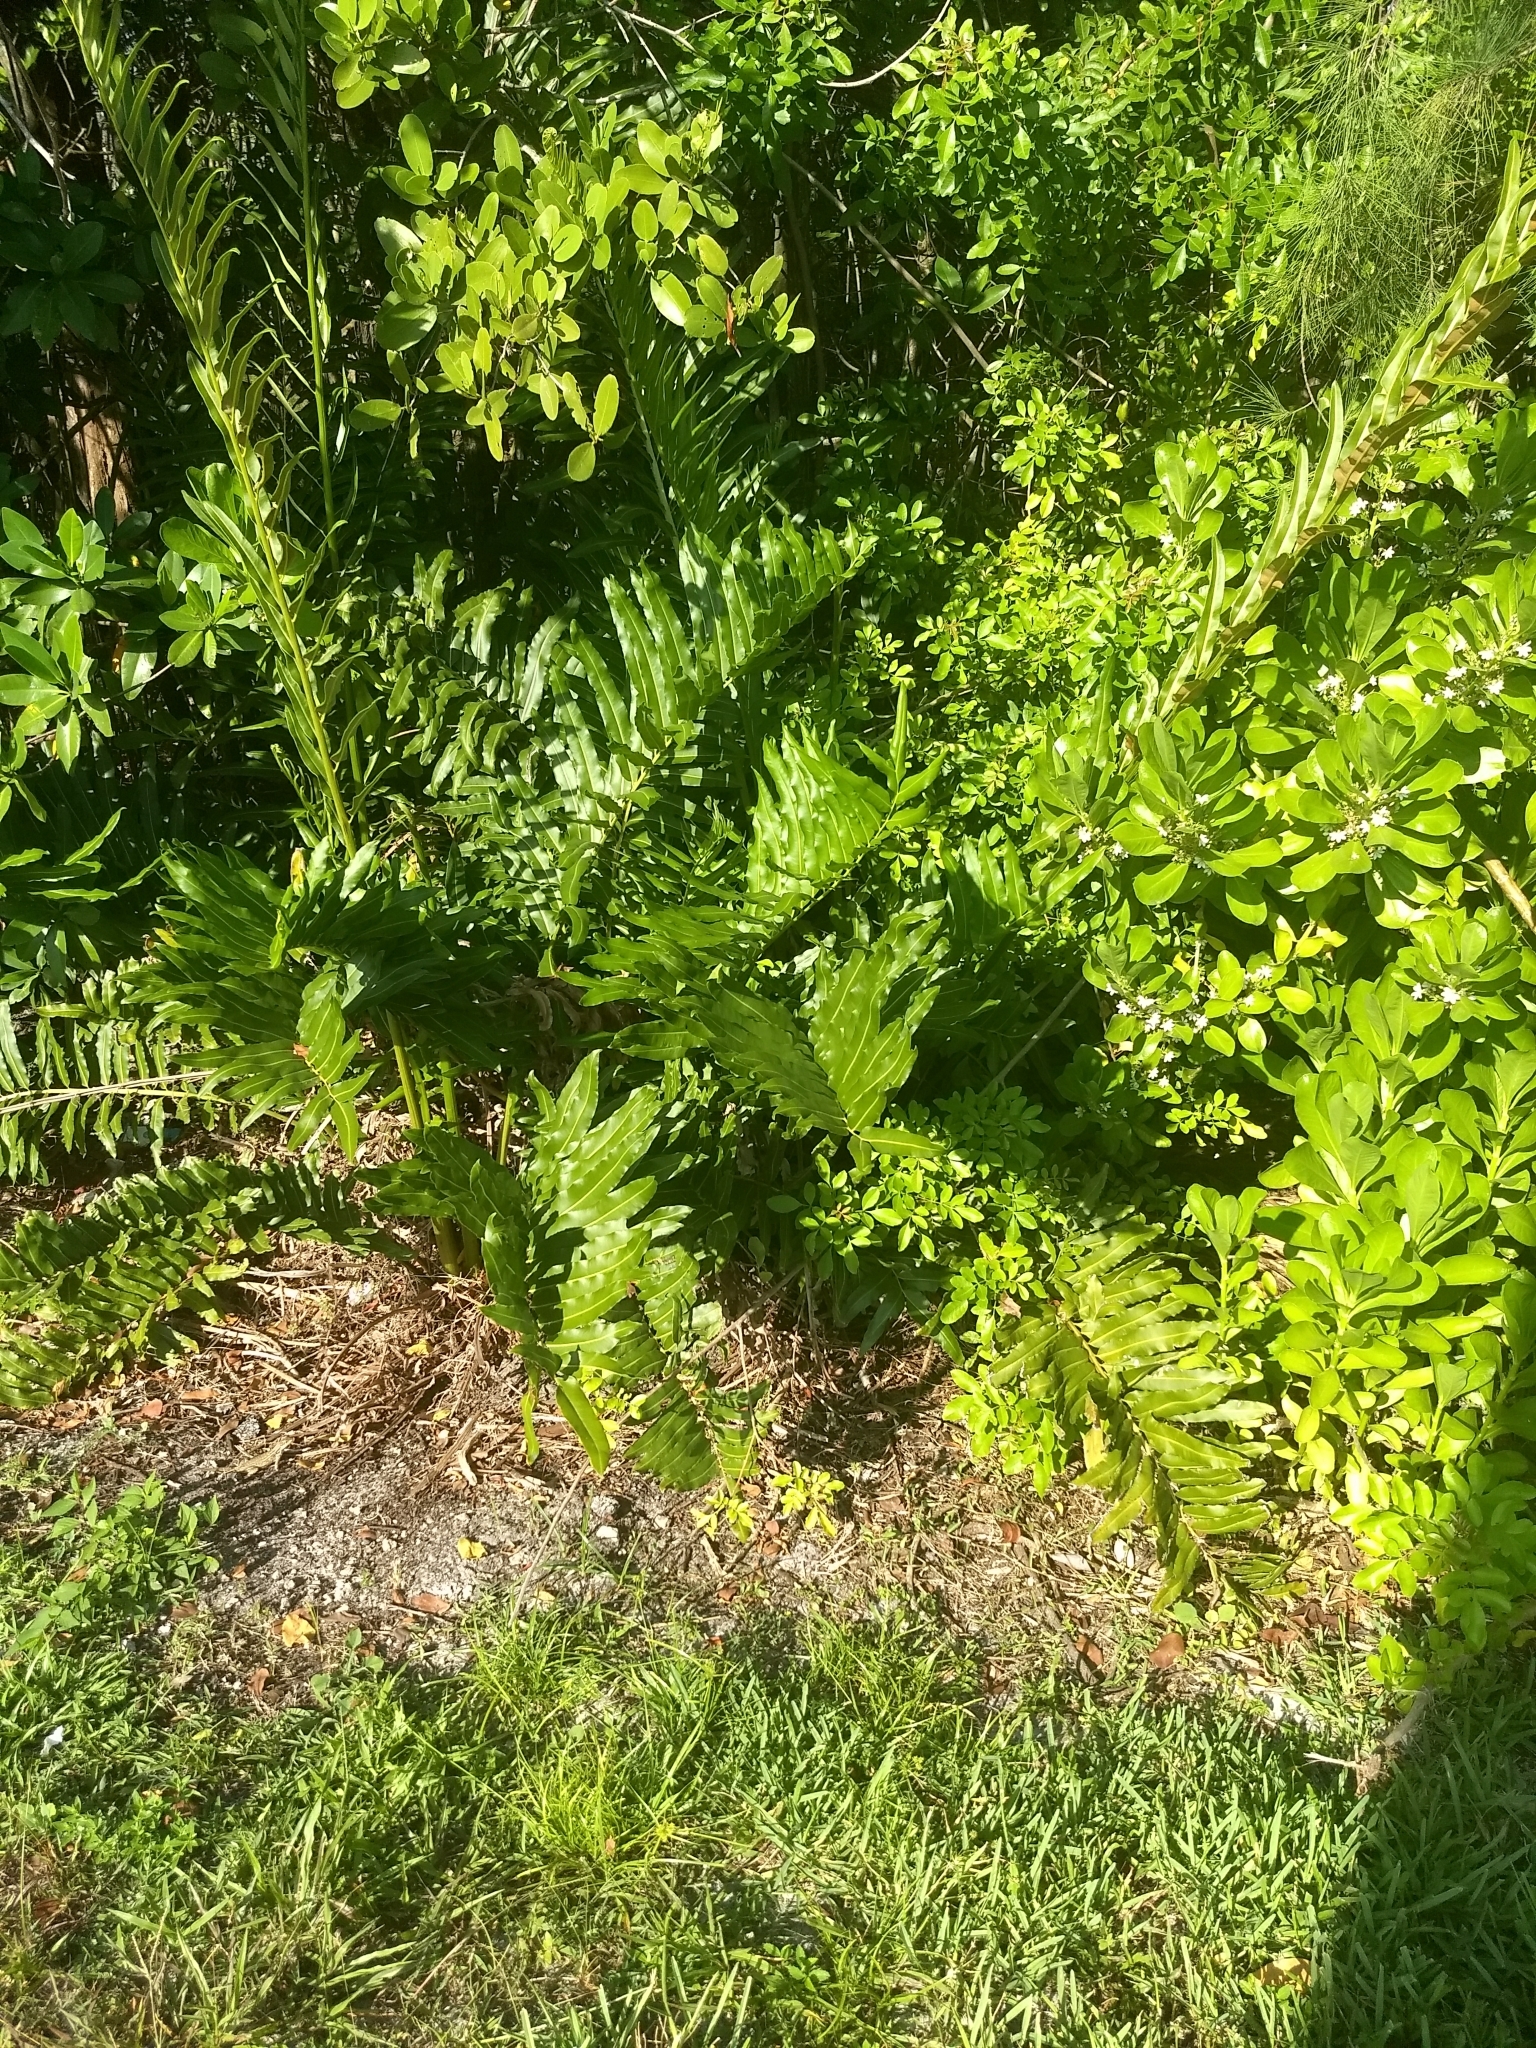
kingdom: Plantae
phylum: Tracheophyta
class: Polypodiopsida
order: Polypodiales
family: Pteridaceae
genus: Acrostichum
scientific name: Acrostichum danaeifolium
